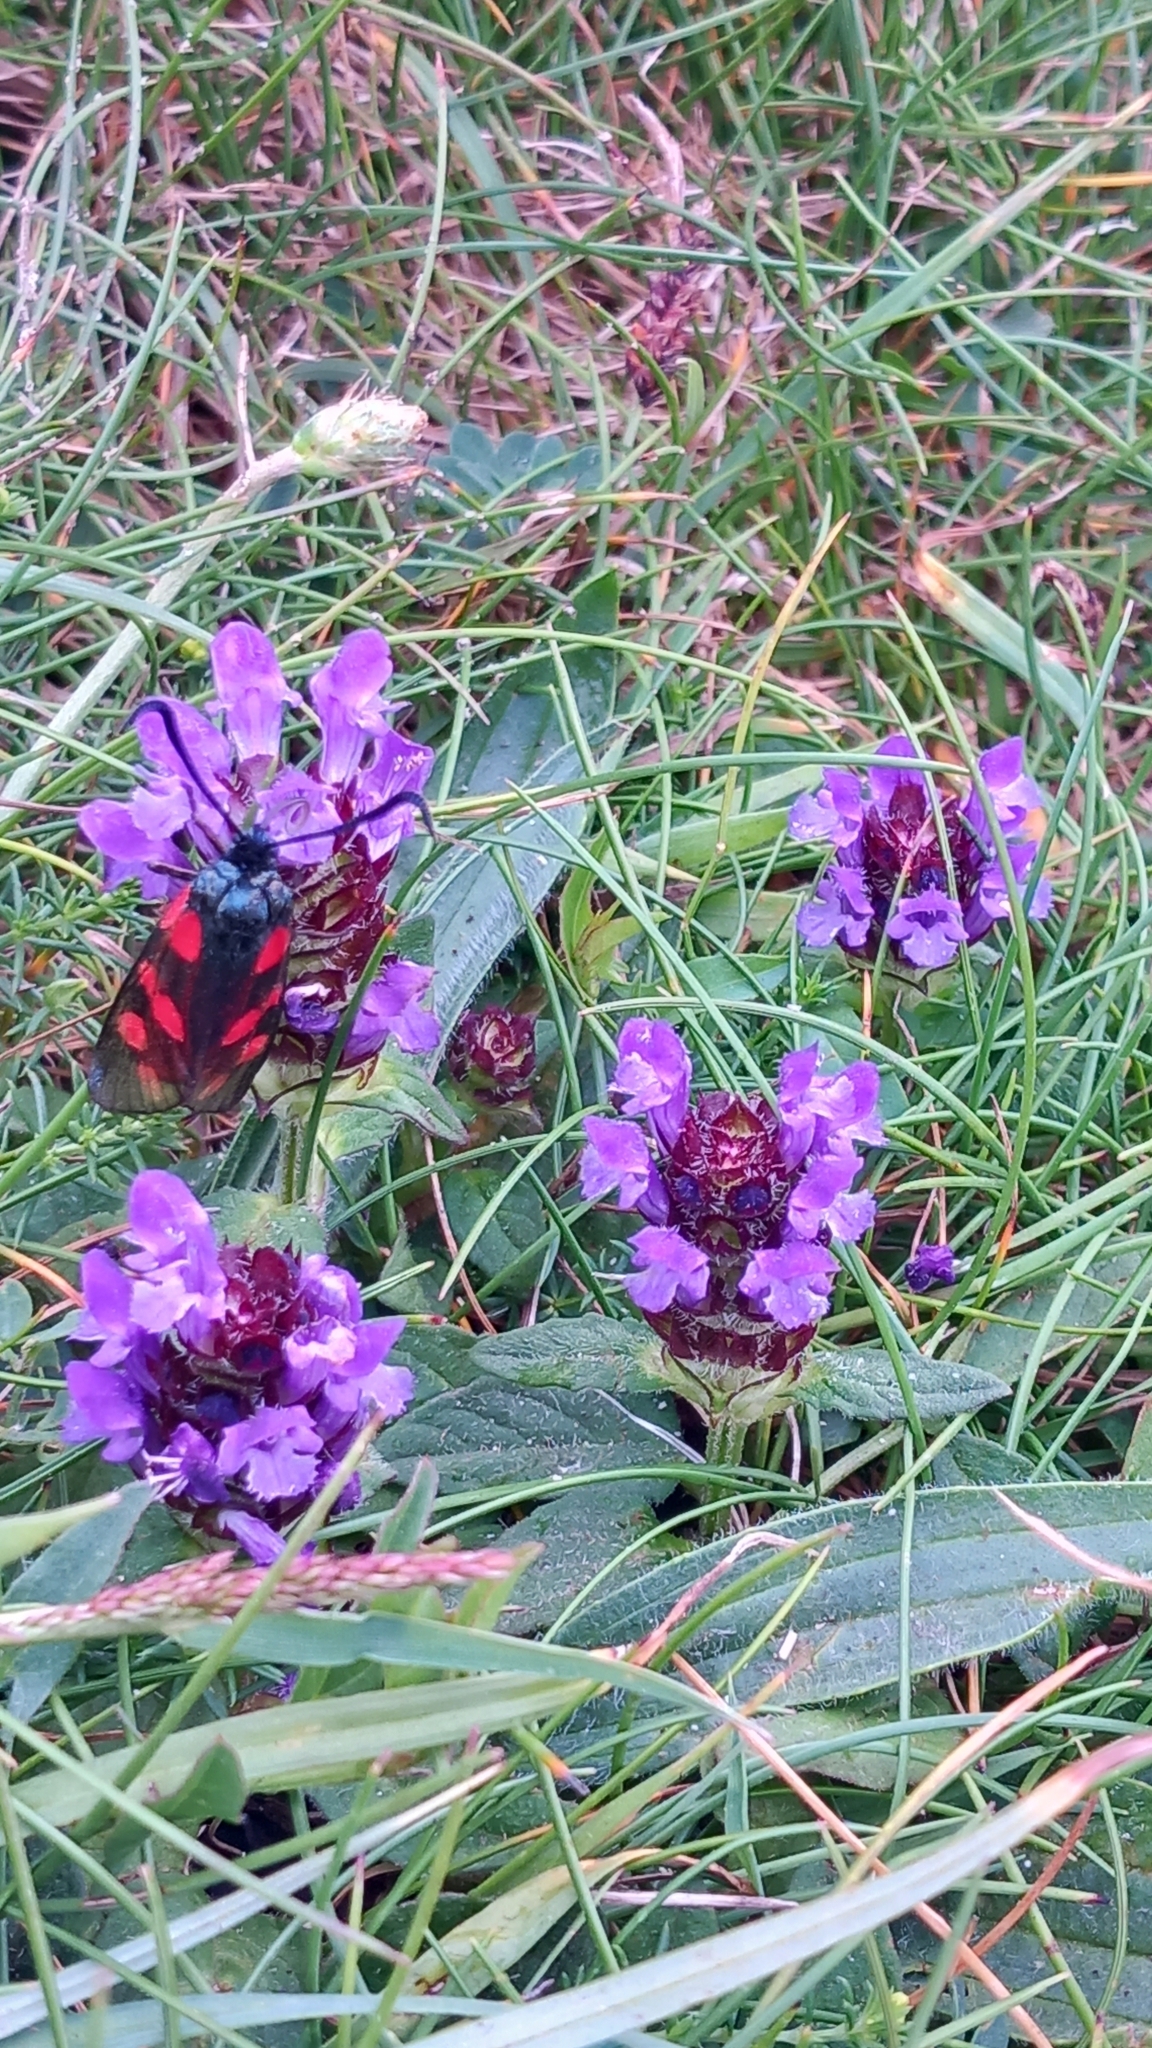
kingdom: Animalia
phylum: Arthropoda
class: Insecta
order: Lepidoptera
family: Zygaenidae
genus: Zygaena
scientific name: Zygaena filipendulae
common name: Six-spot burnet
